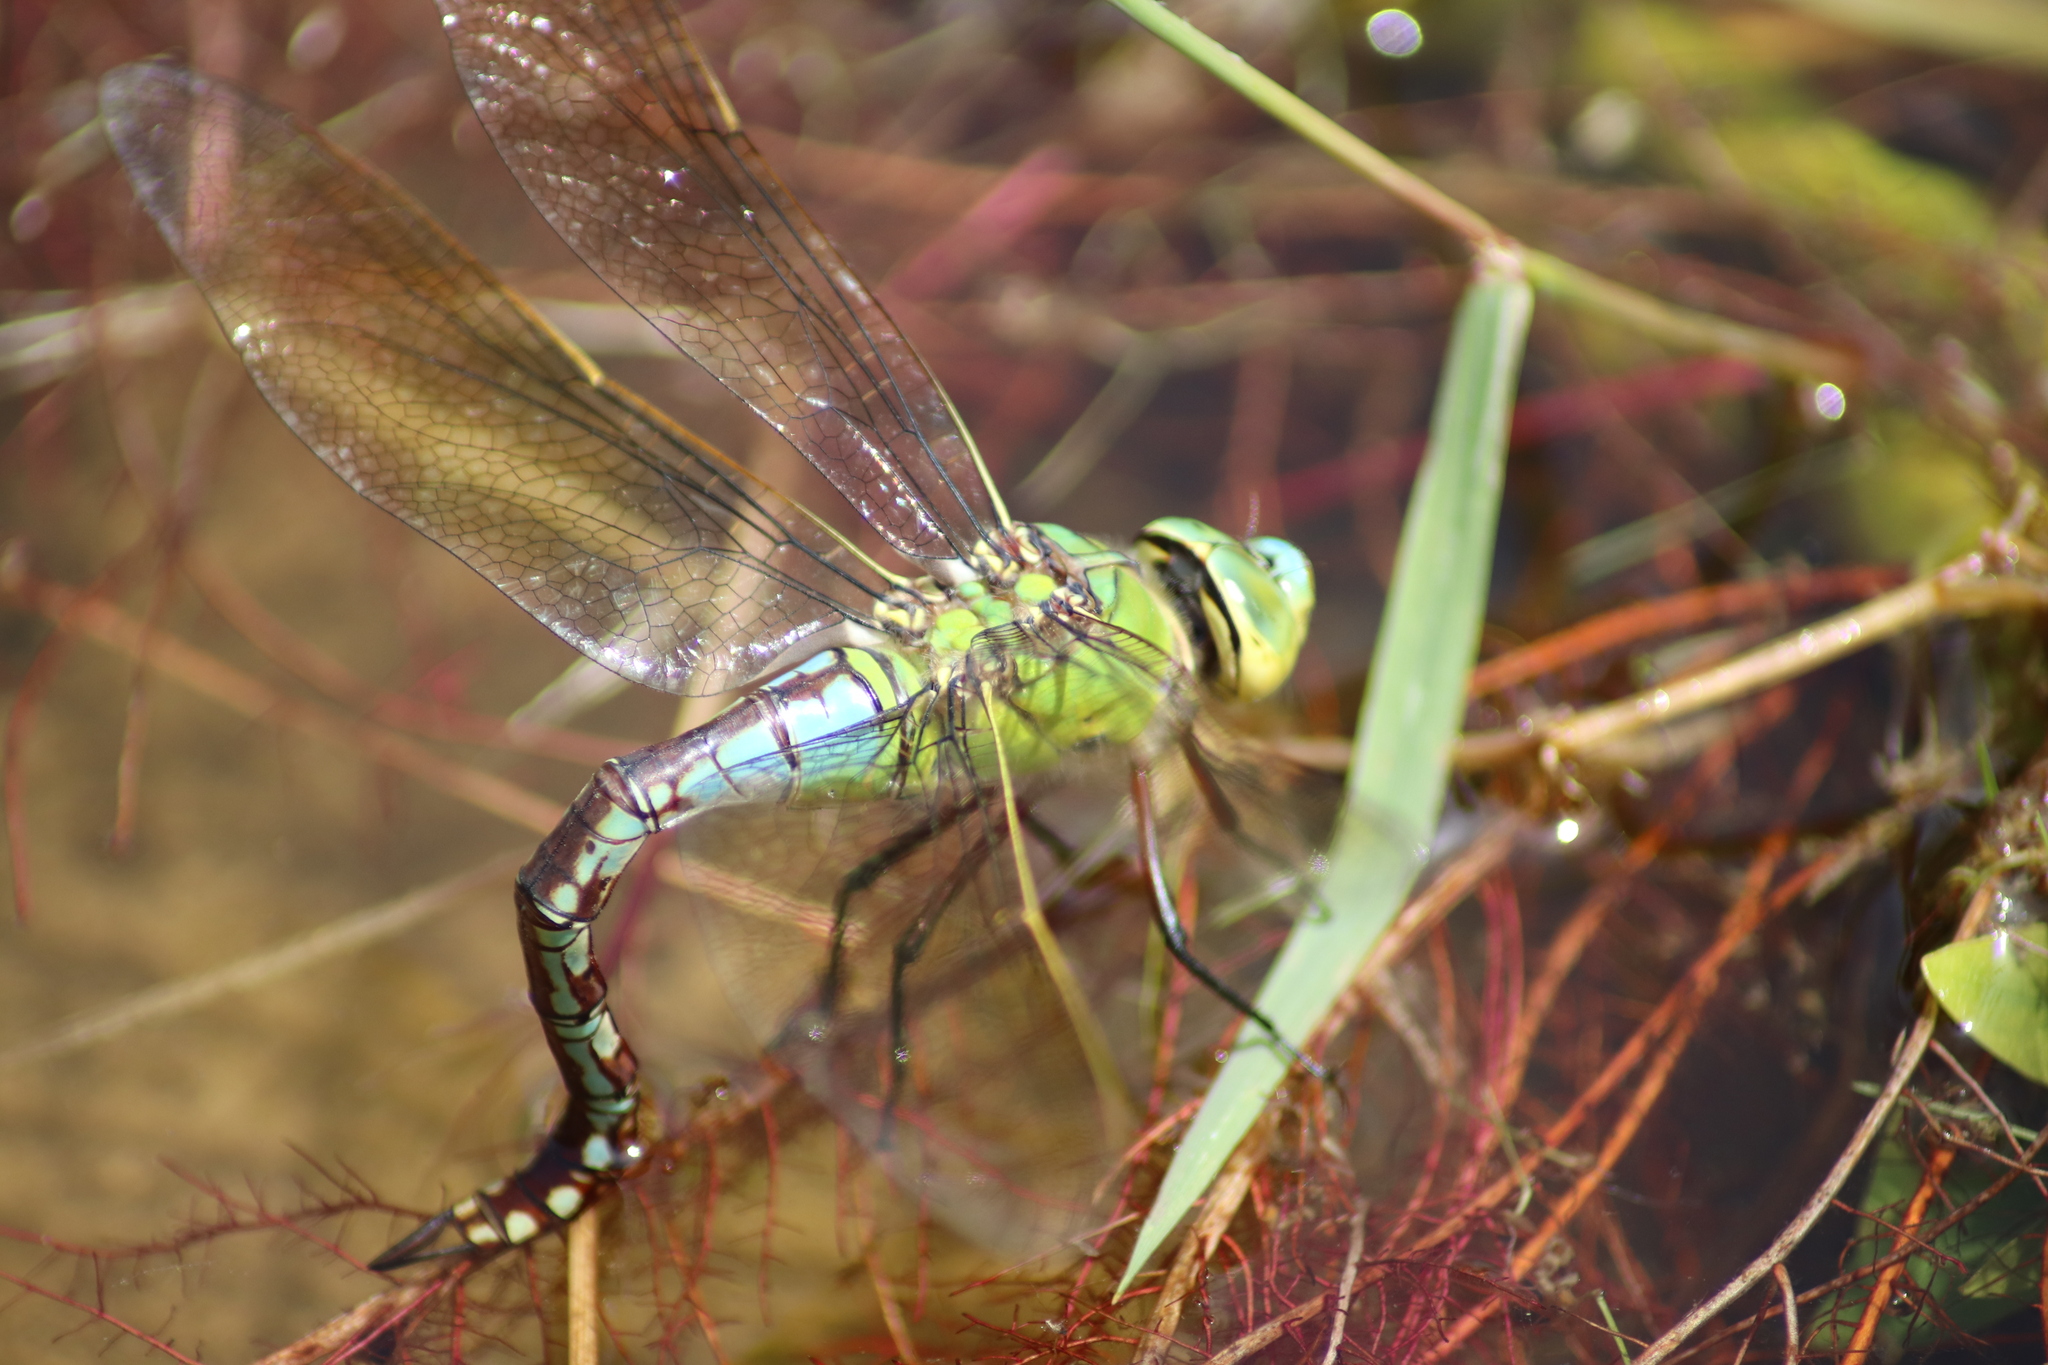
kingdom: Animalia
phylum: Arthropoda
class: Insecta
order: Odonata
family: Aeshnidae
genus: Anax
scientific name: Anax imperator
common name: Emperor dragonfly
